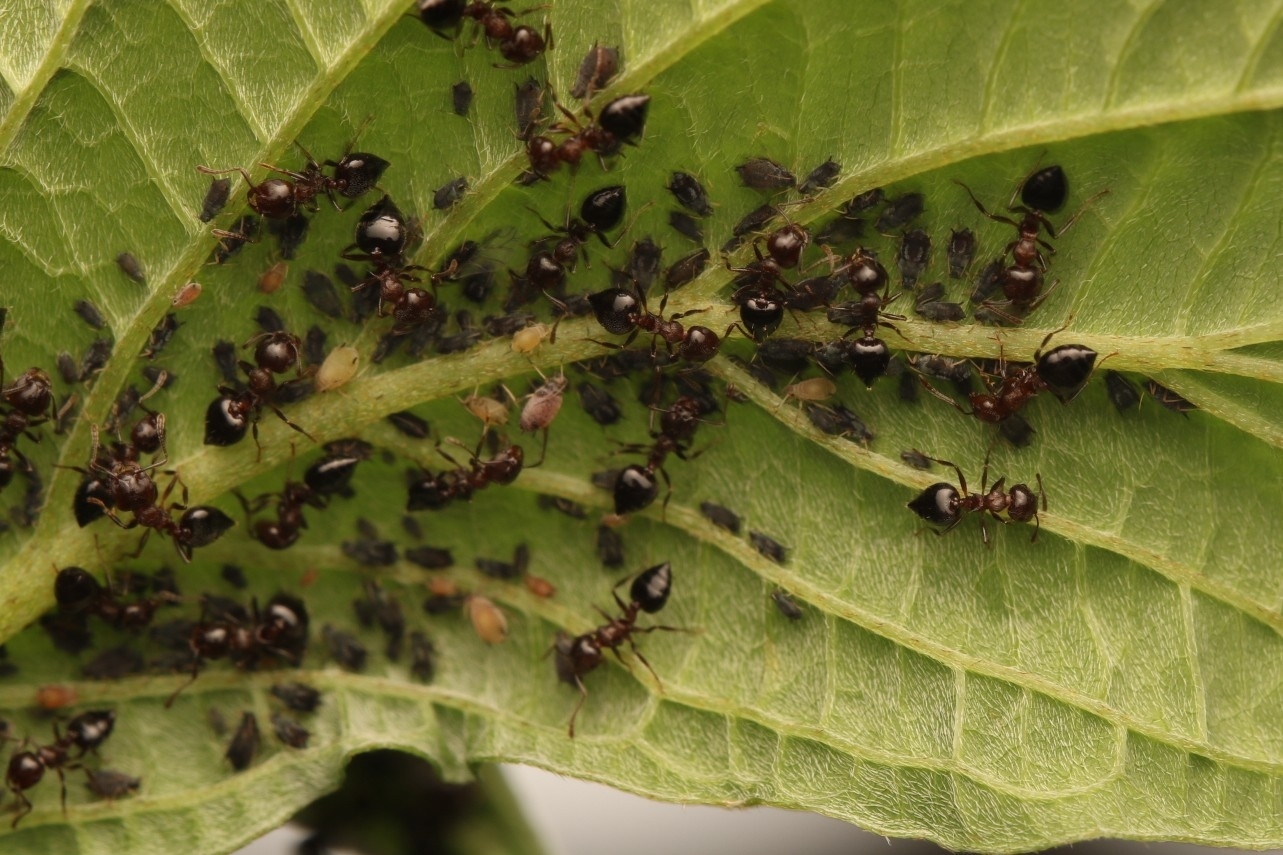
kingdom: Animalia
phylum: Arthropoda
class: Insecta
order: Hymenoptera
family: Formicidae
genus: Crematogaster
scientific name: Crematogaster
